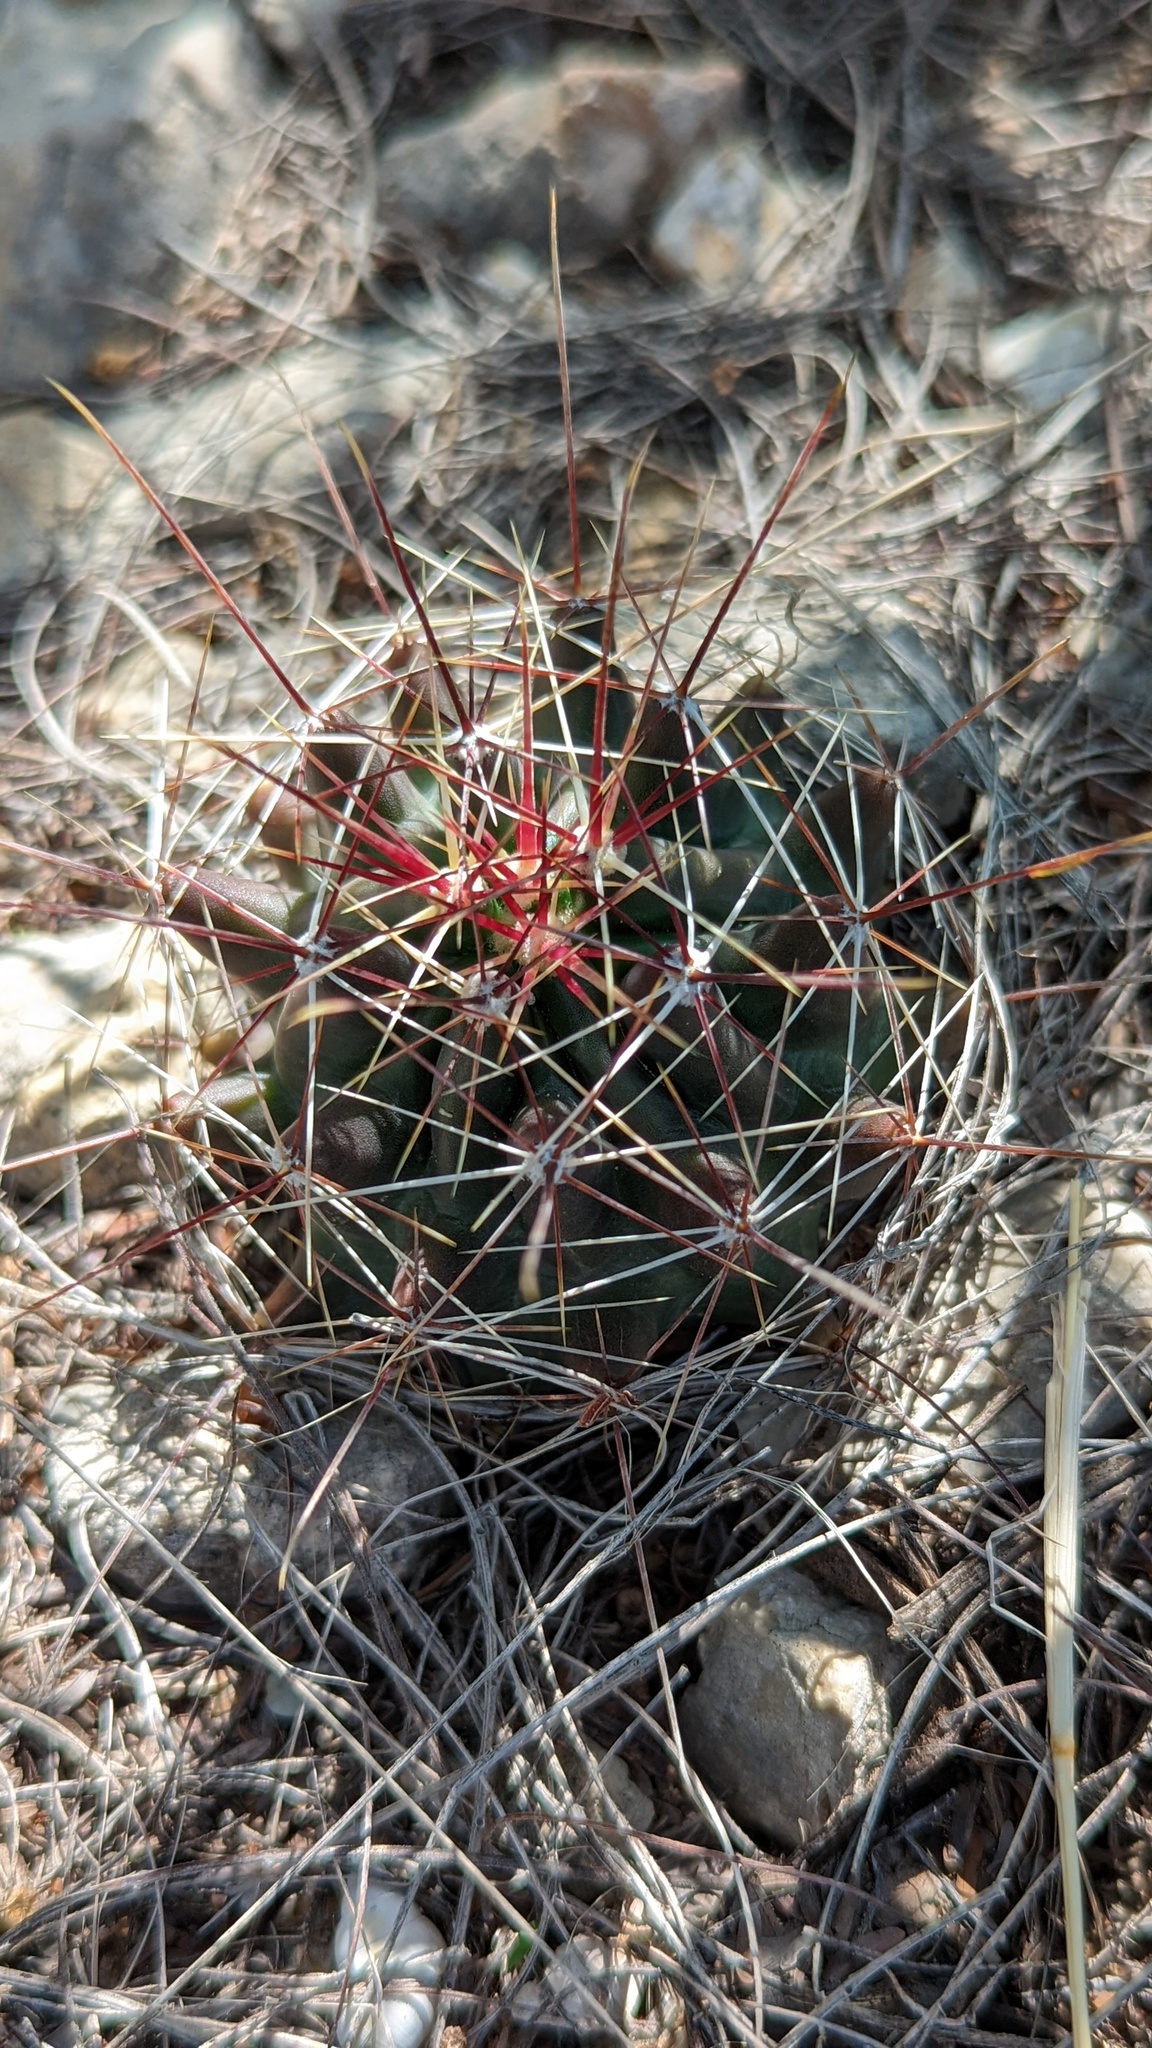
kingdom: Plantae
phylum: Tracheophyta
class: Magnoliopsida
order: Caryophyllales
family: Cactaceae
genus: Bisnaga
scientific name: Bisnaga hamatacantha
